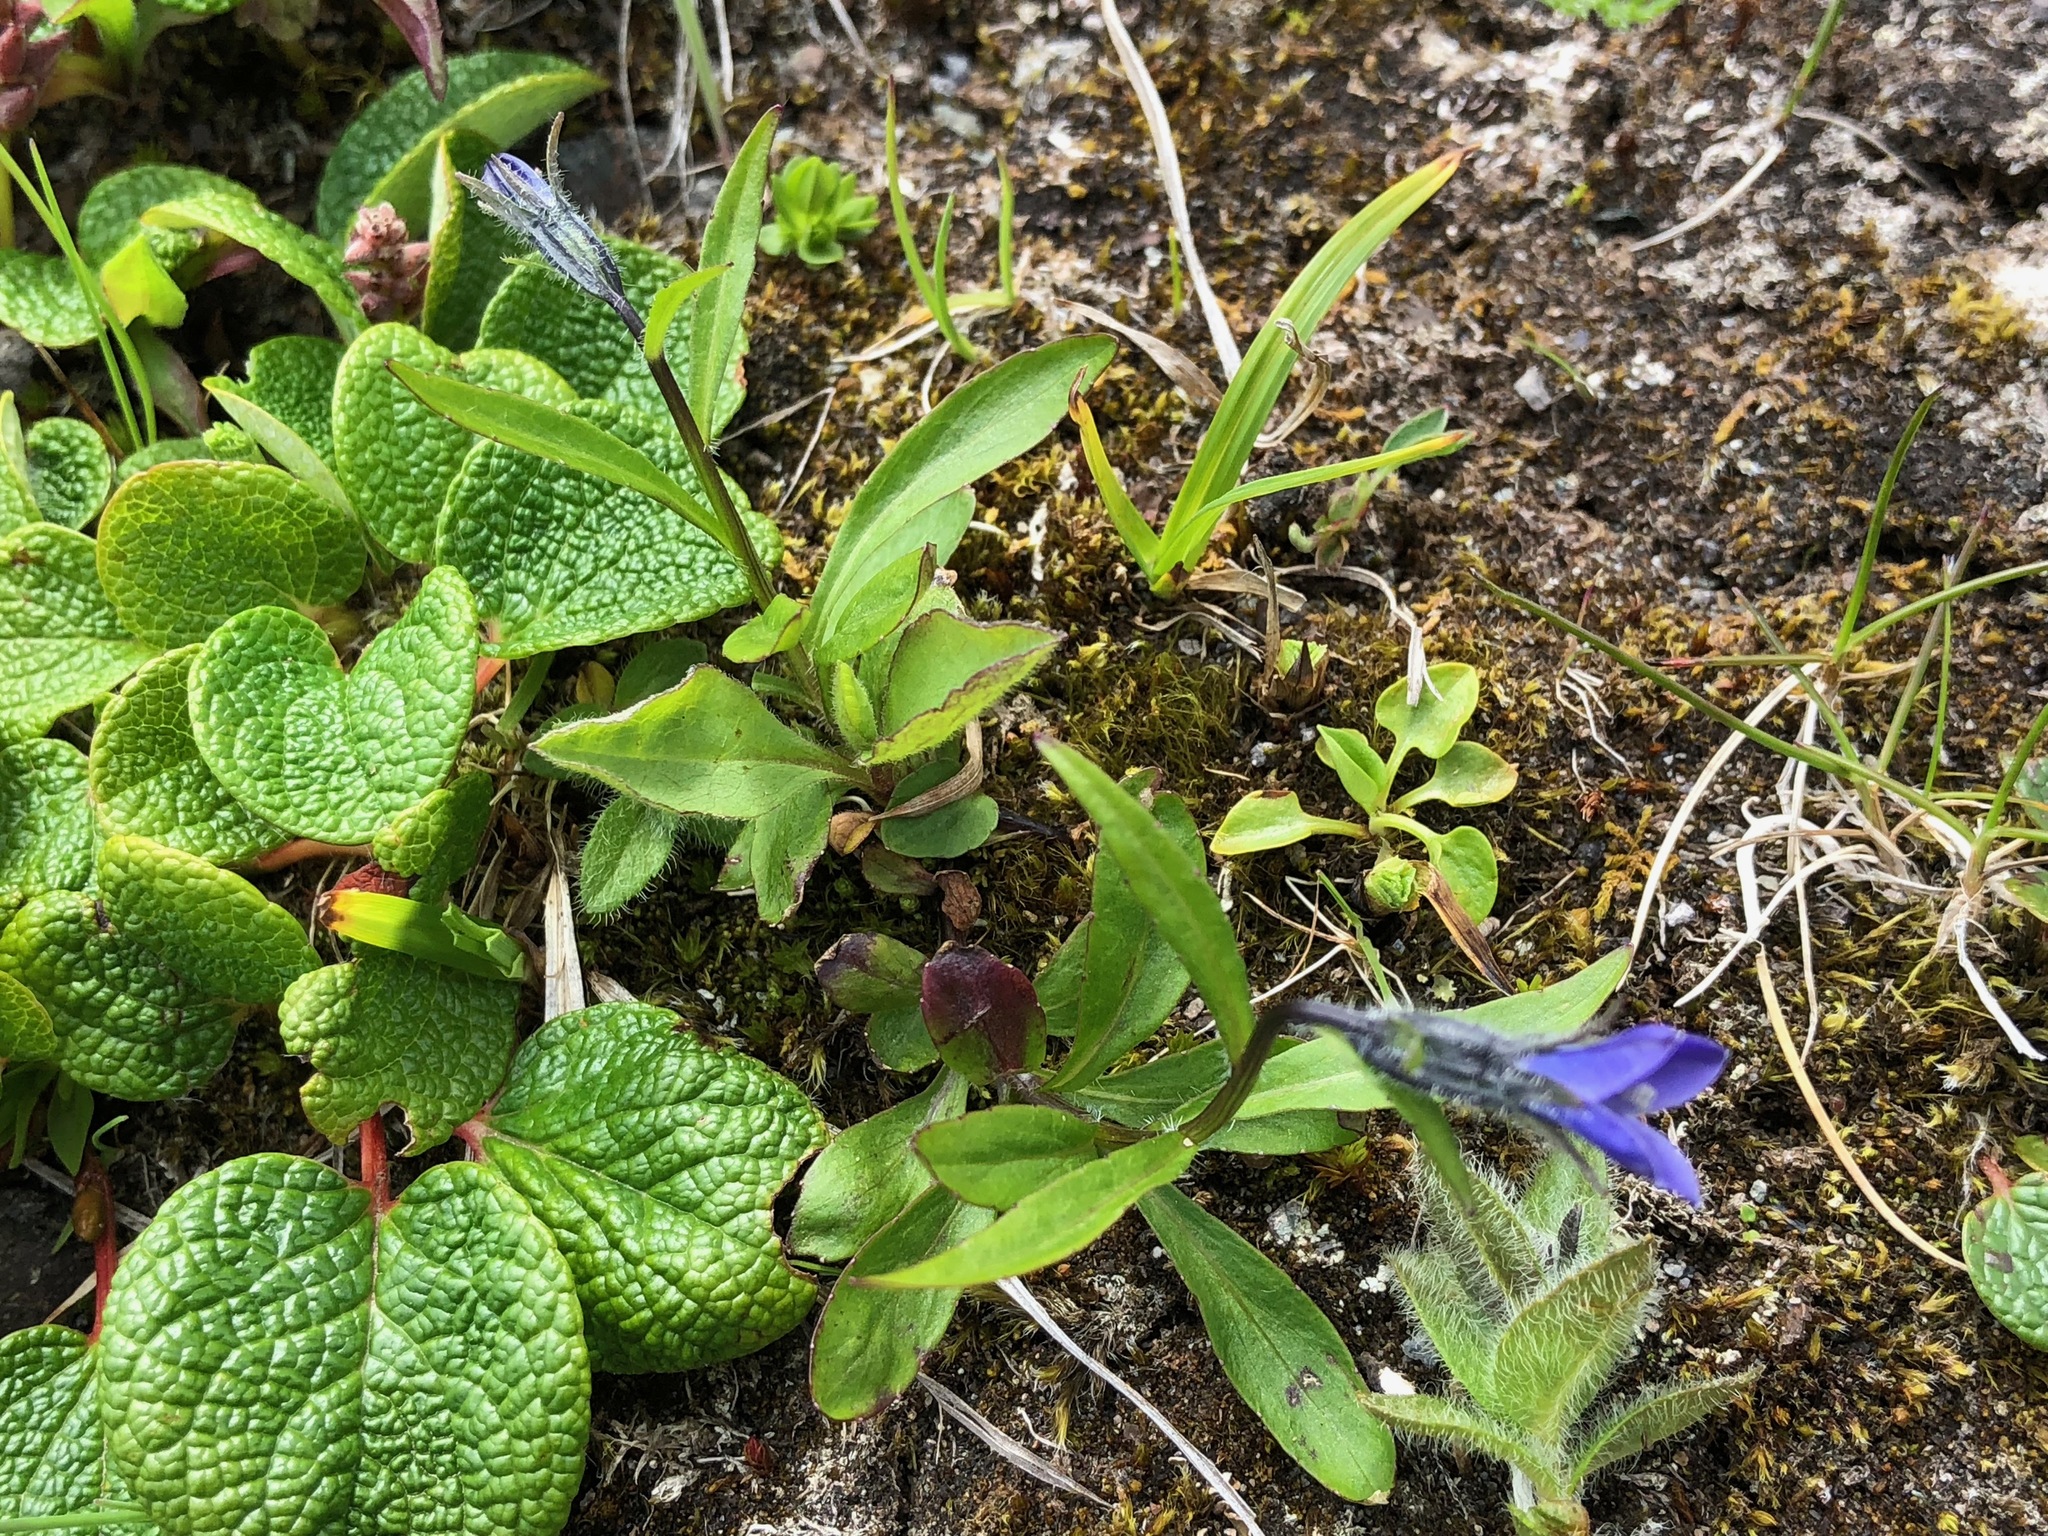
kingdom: Plantae
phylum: Tracheophyta
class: Magnoliopsida
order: Asterales
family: Campanulaceae
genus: Campanula
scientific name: Campanula uniflora
